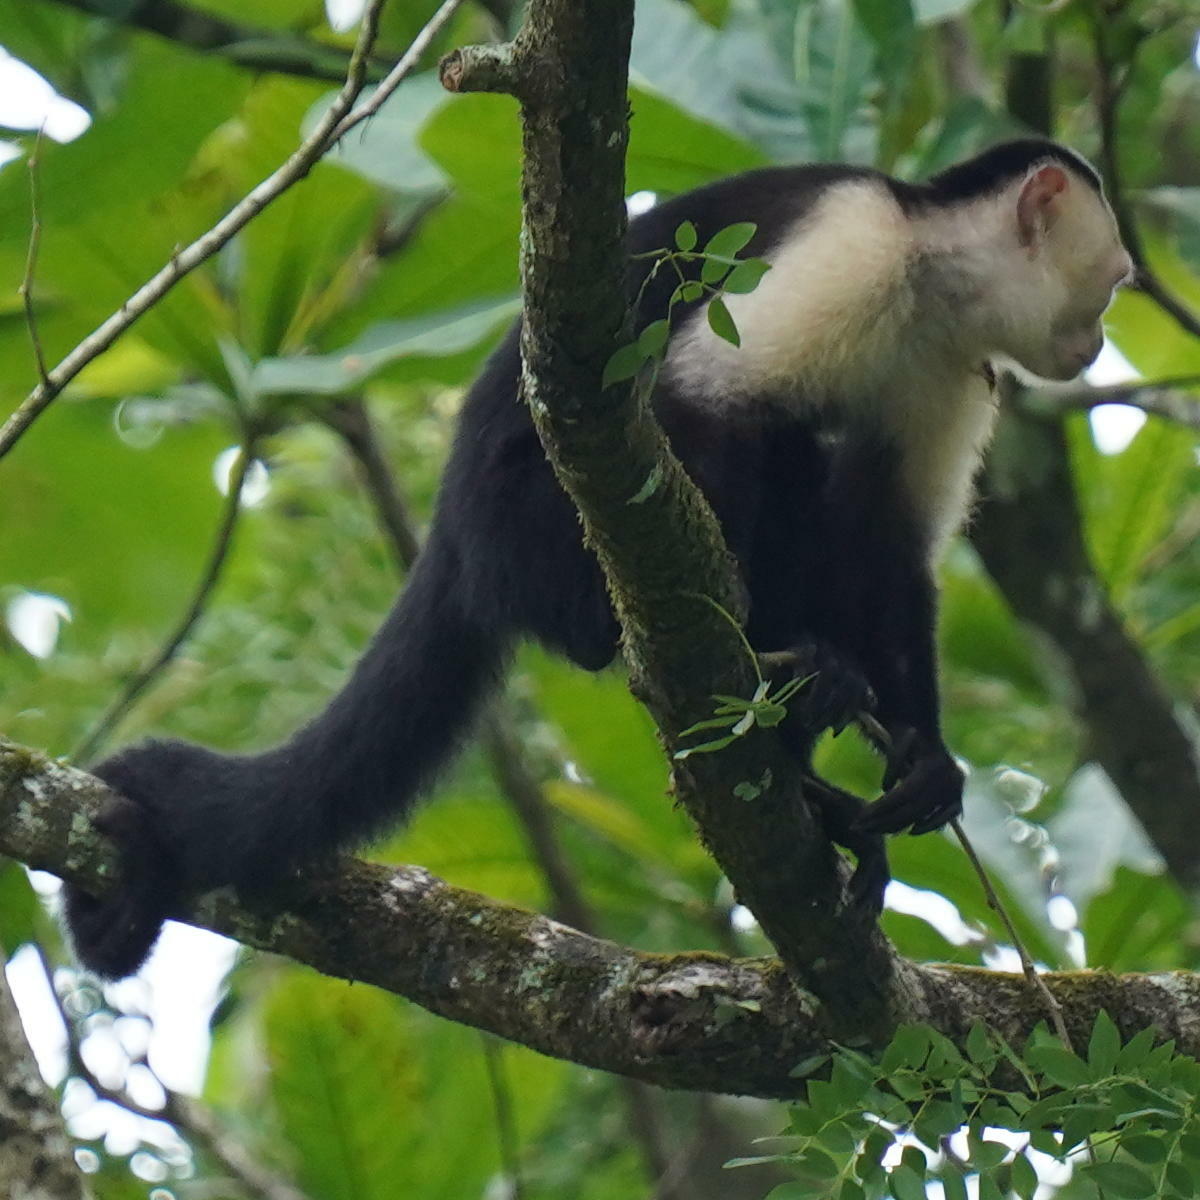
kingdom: Animalia
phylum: Chordata
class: Mammalia
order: Primates
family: Cebidae
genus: Cebus
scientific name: Cebus imitator
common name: Panamanian white-faced capuchin
